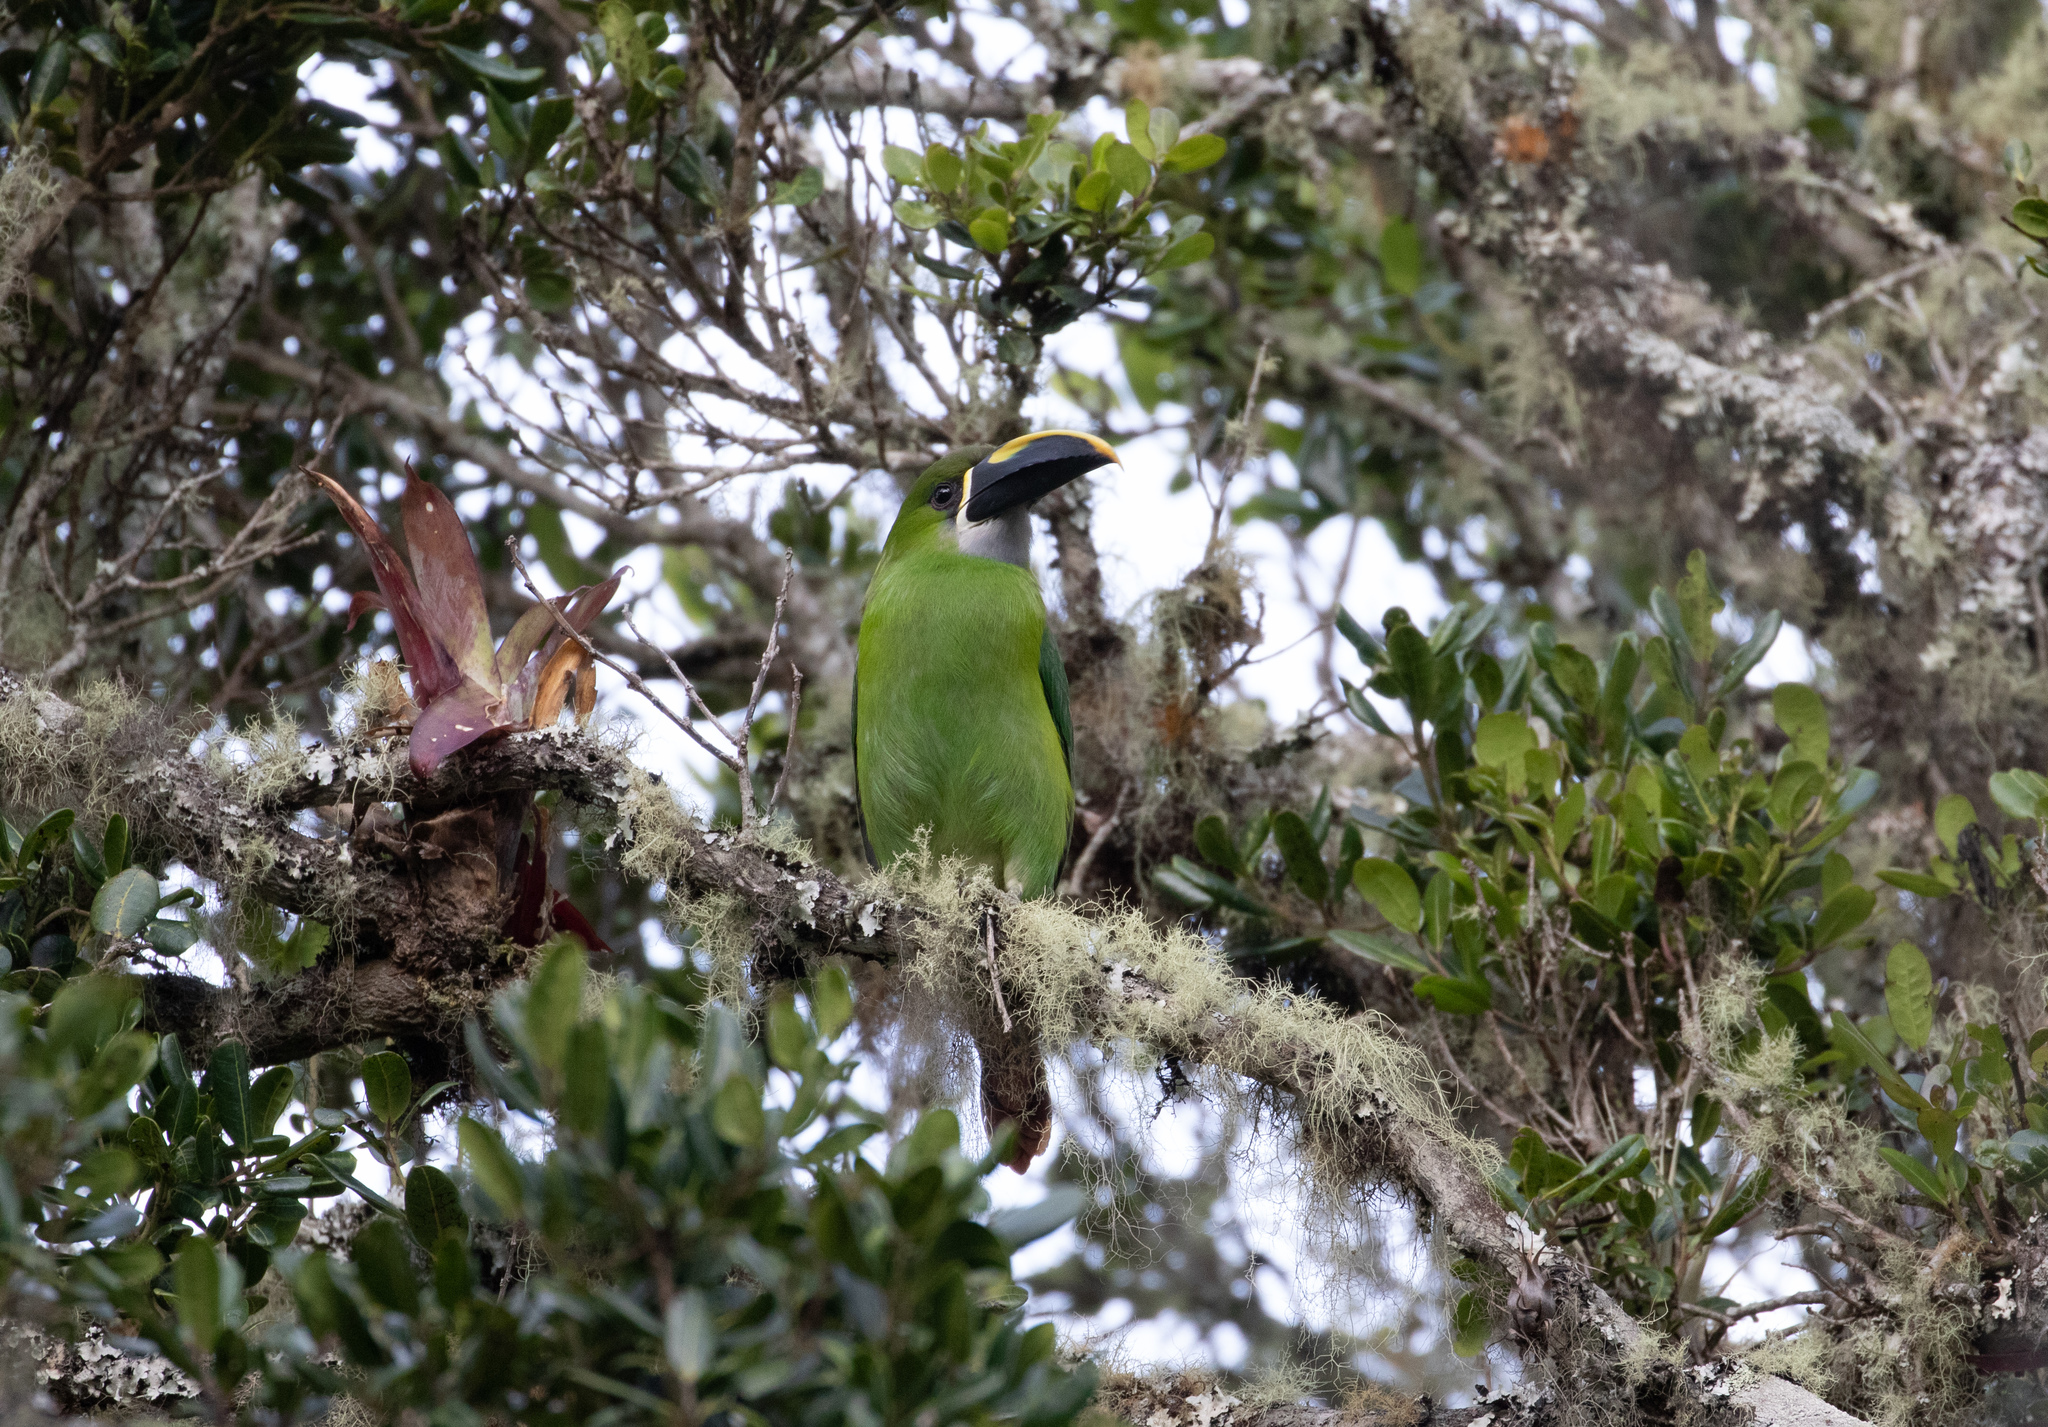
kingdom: Animalia
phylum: Chordata
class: Aves
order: Piciformes
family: Ramphastidae
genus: Aulacorhynchus
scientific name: Aulacorhynchus albivitta
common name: White-throated toucanet
